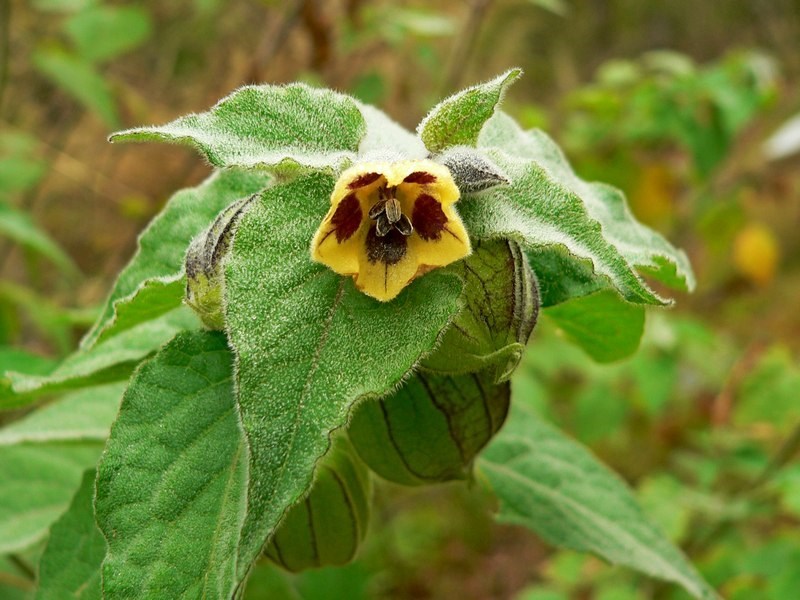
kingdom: Plantae
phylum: Tracheophyta
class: Magnoliopsida
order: Solanales
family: Solanaceae
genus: Physalis
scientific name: Physalis peruviana
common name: Cape-gooseberry
